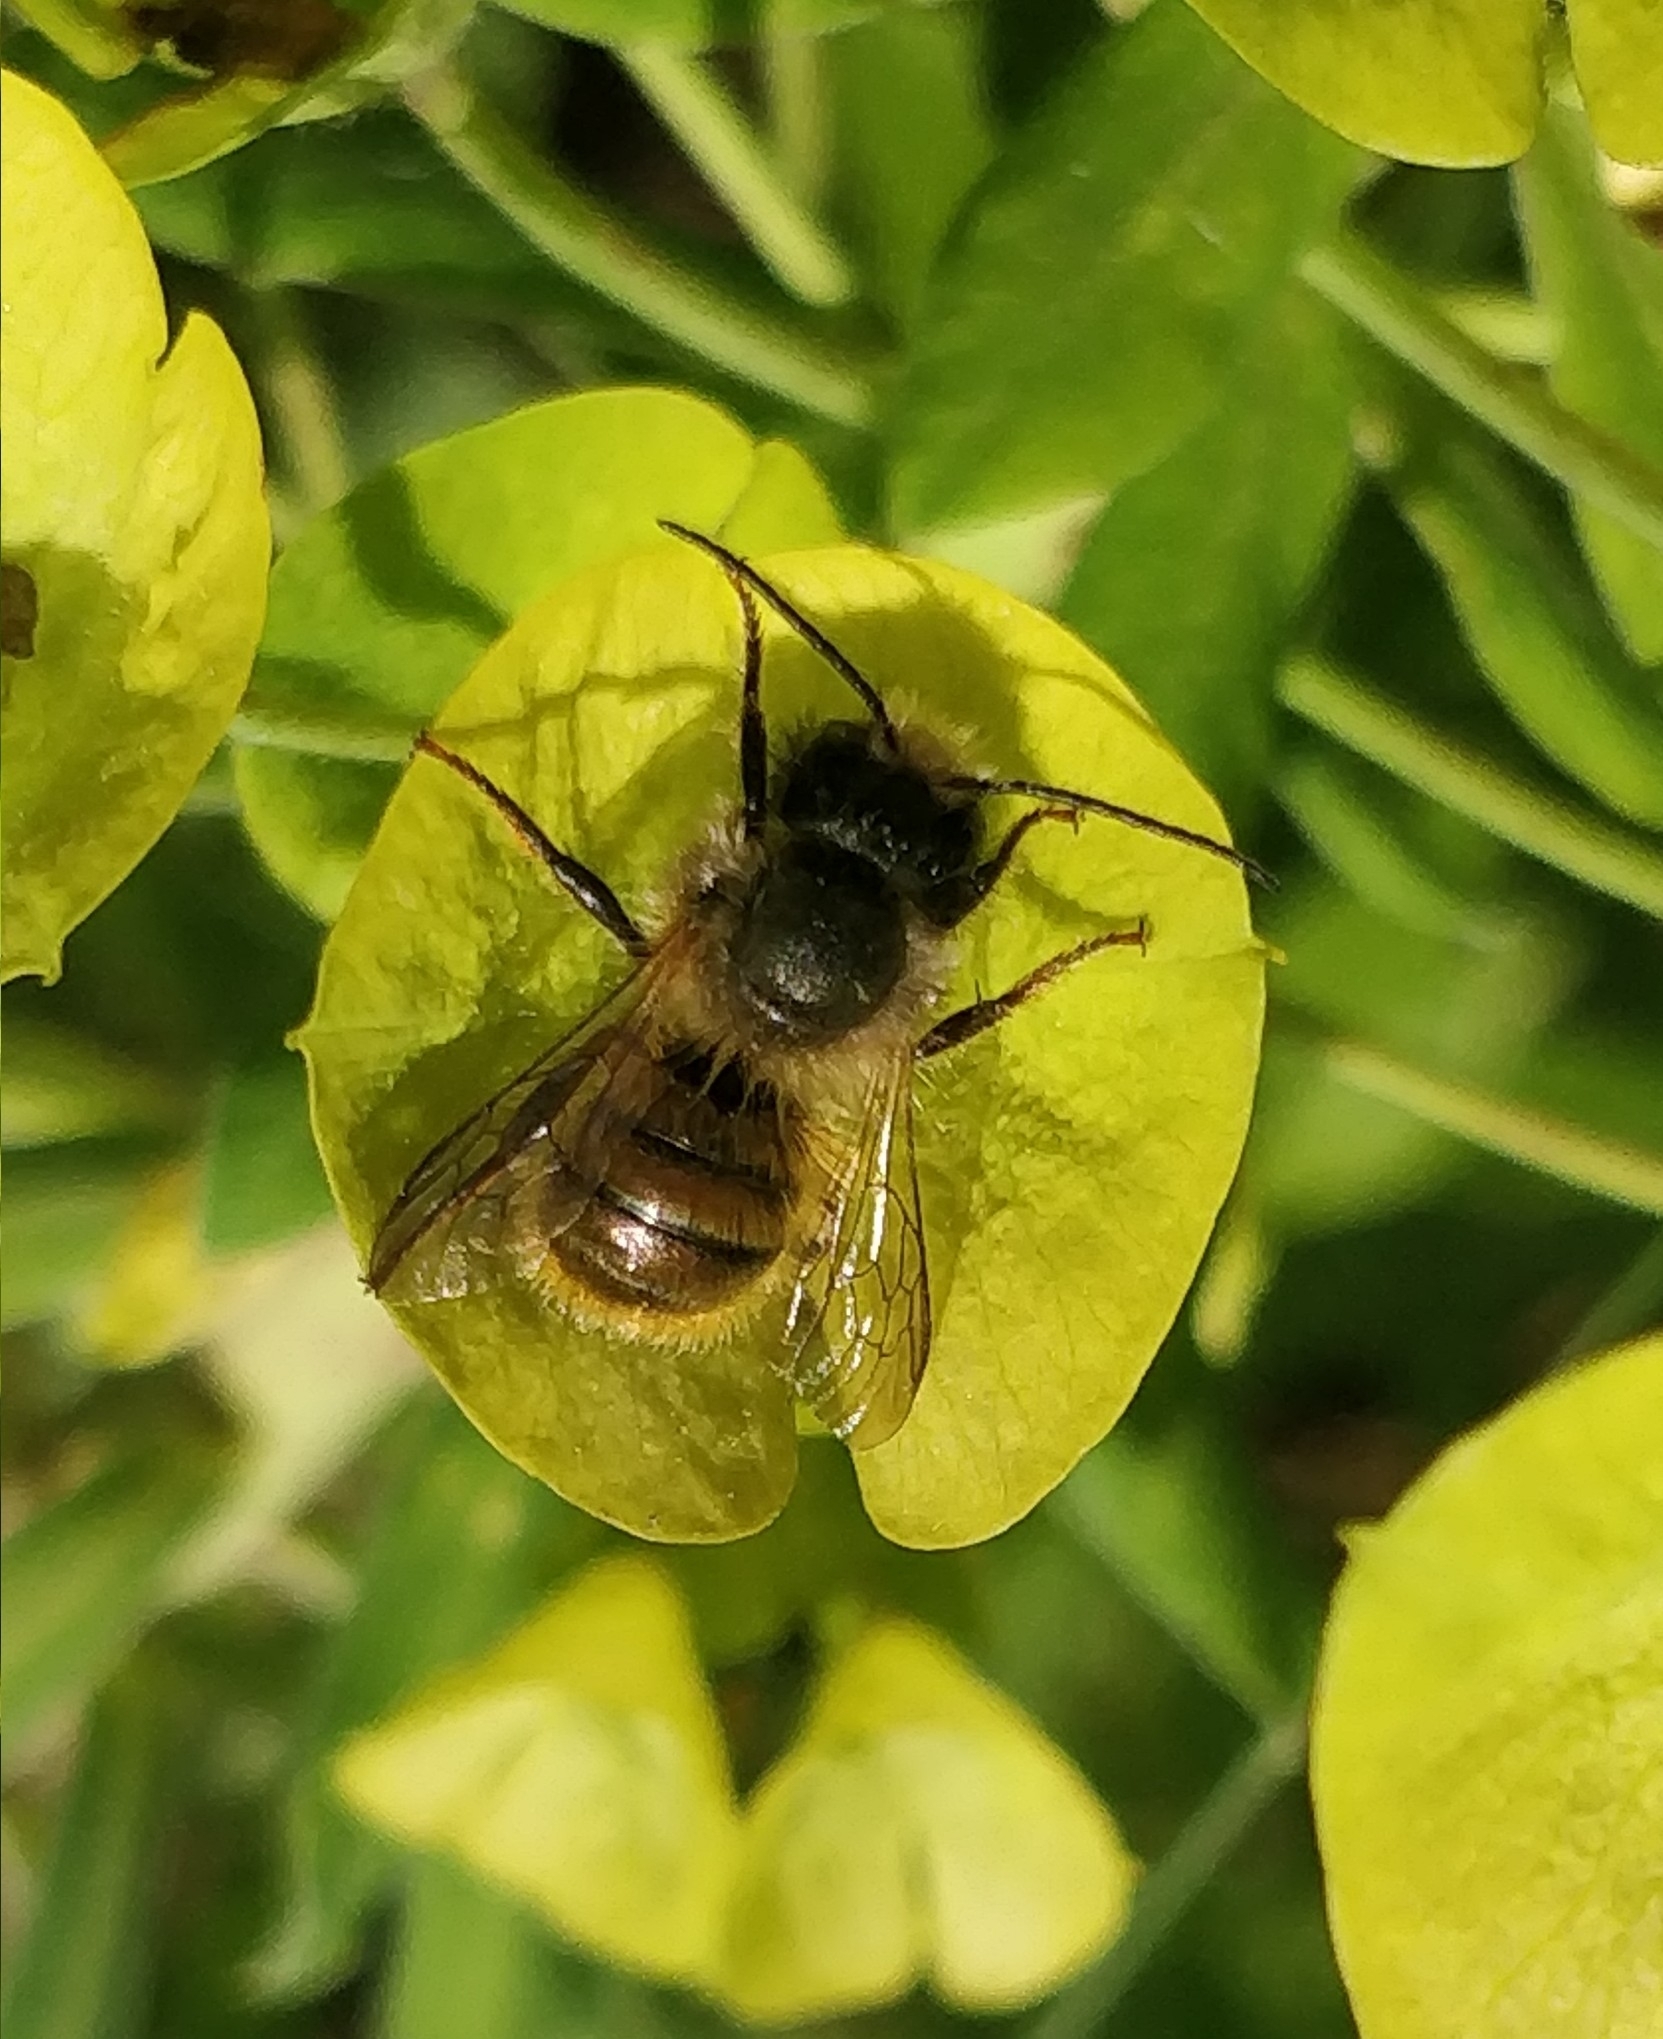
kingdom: Animalia
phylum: Arthropoda
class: Insecta
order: Hymenoptera
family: Megachilidae
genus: Osmia
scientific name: Osmia bicornis
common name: Red mason bee
